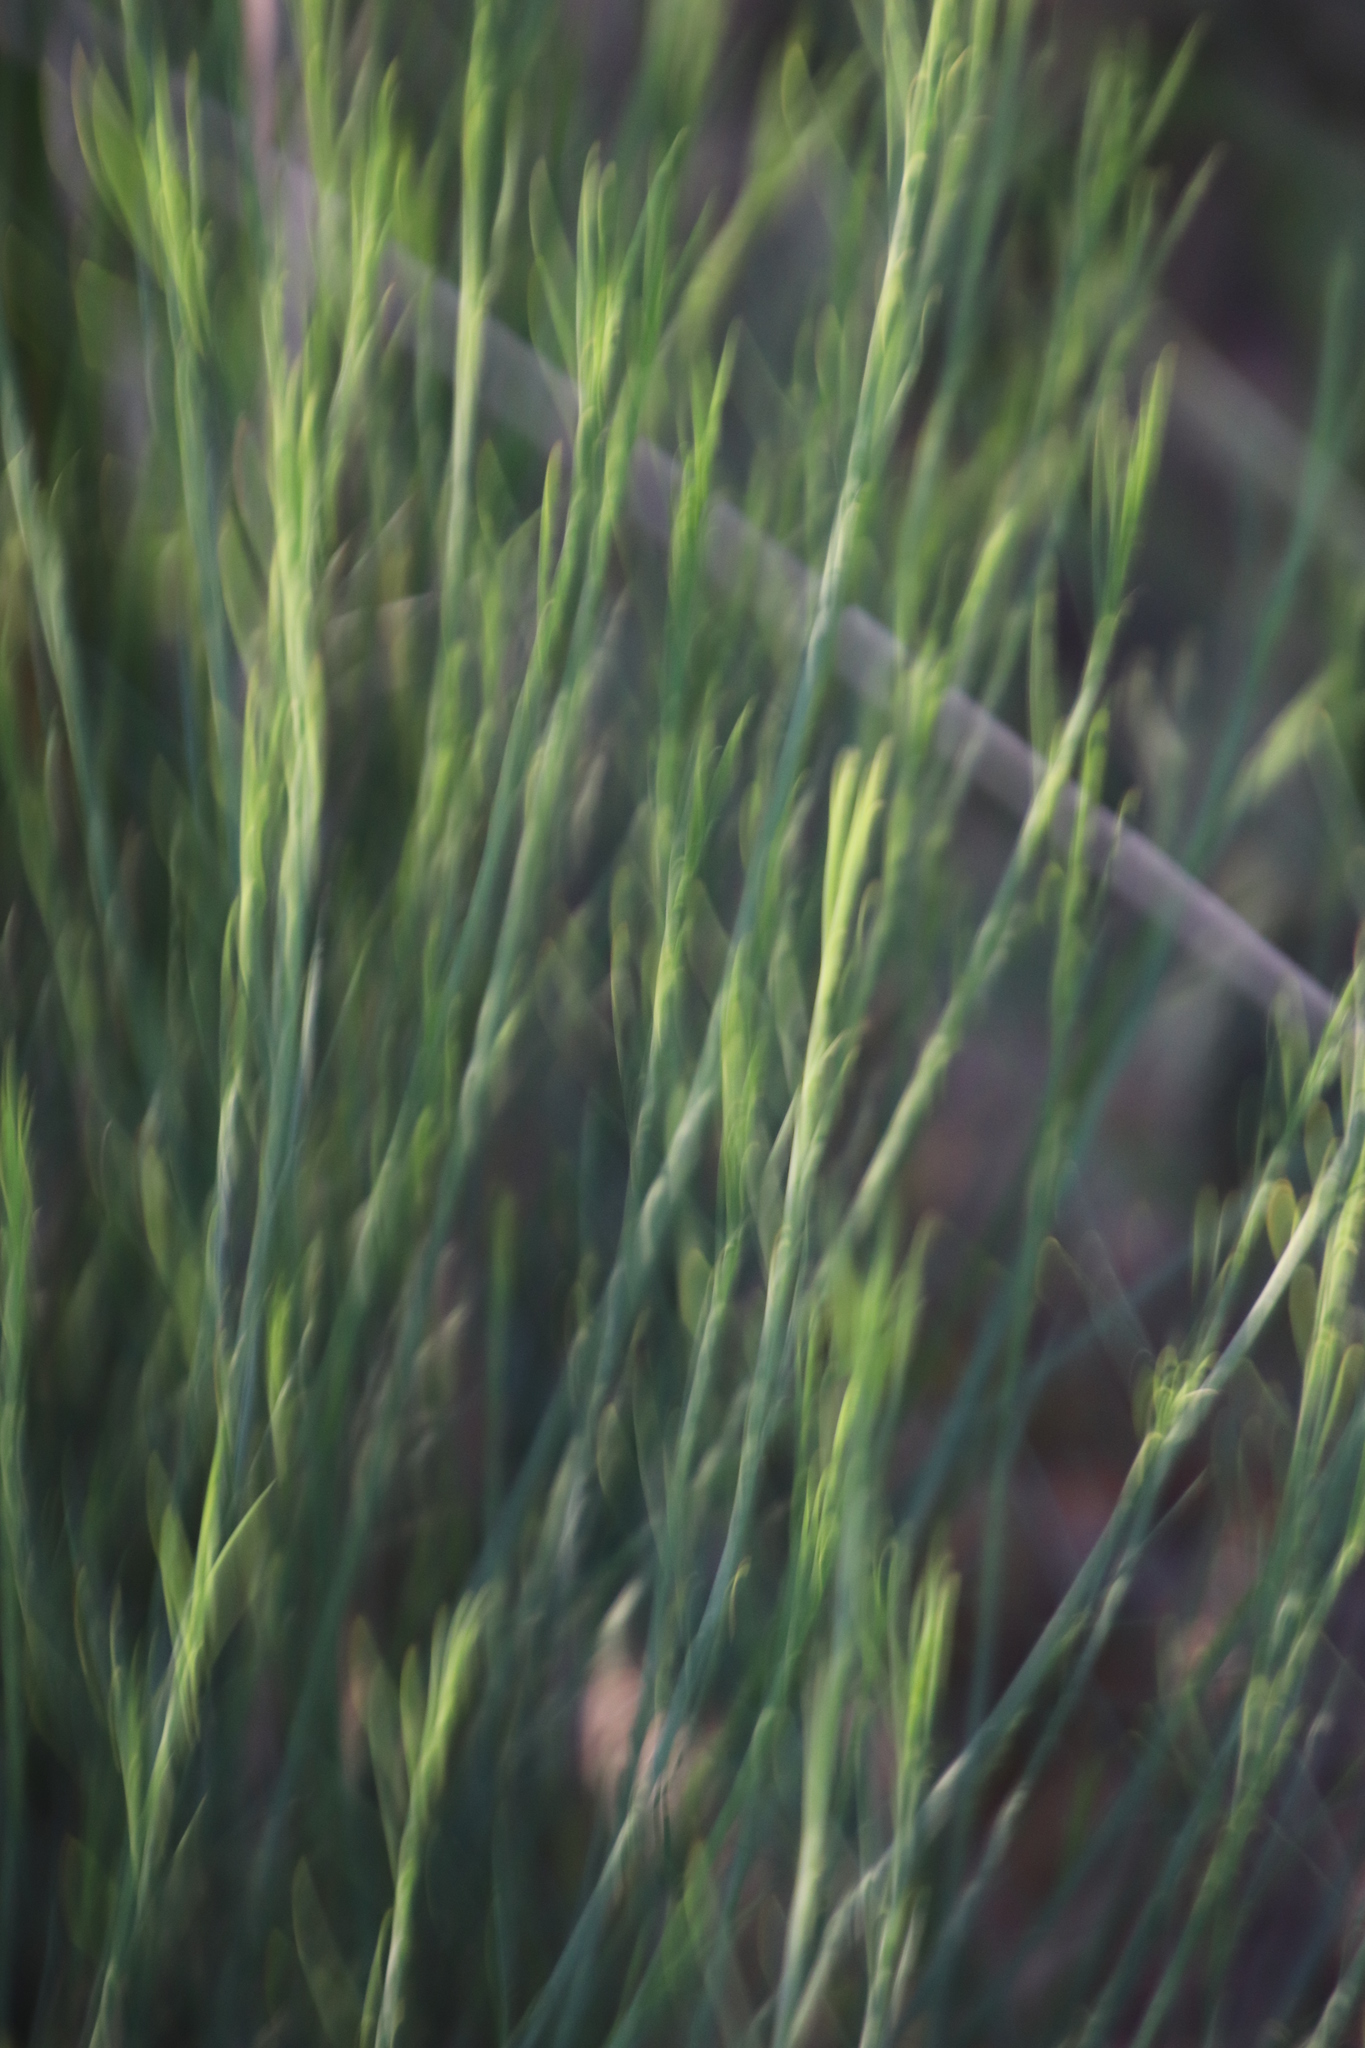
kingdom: Plantae
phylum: Tracheophyta
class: Magnoliopsida
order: Fabales
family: Fabaceae
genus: Psoralea
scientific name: Psoralea fascicularis
